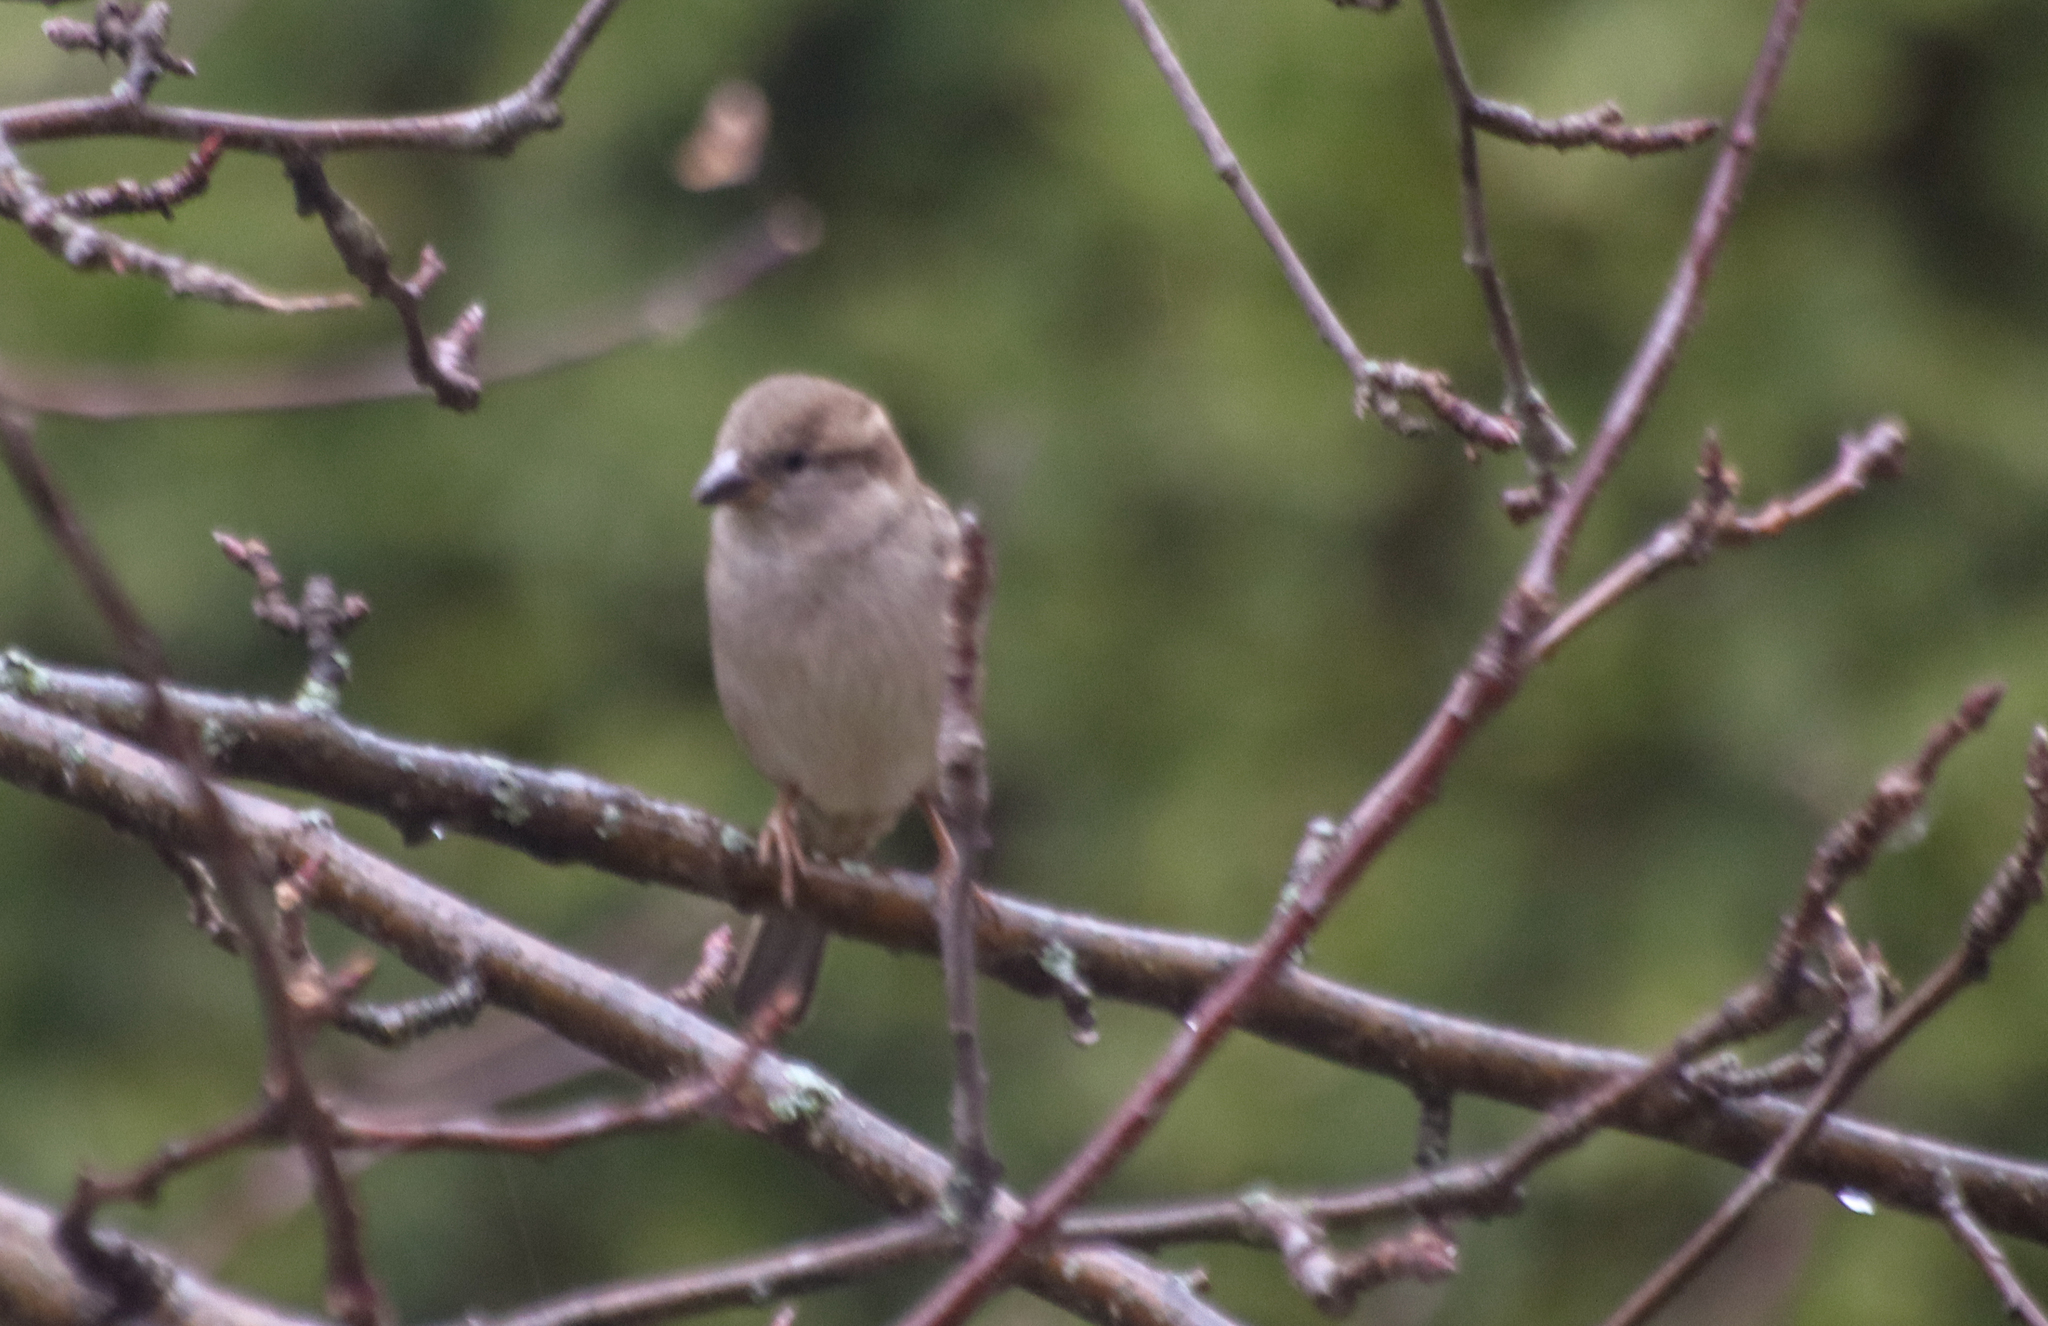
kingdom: Animalia
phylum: Chordata
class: Aves
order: Passeriformes
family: Passeridae
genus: Passer
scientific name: Passer domesticus
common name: House sparrow
